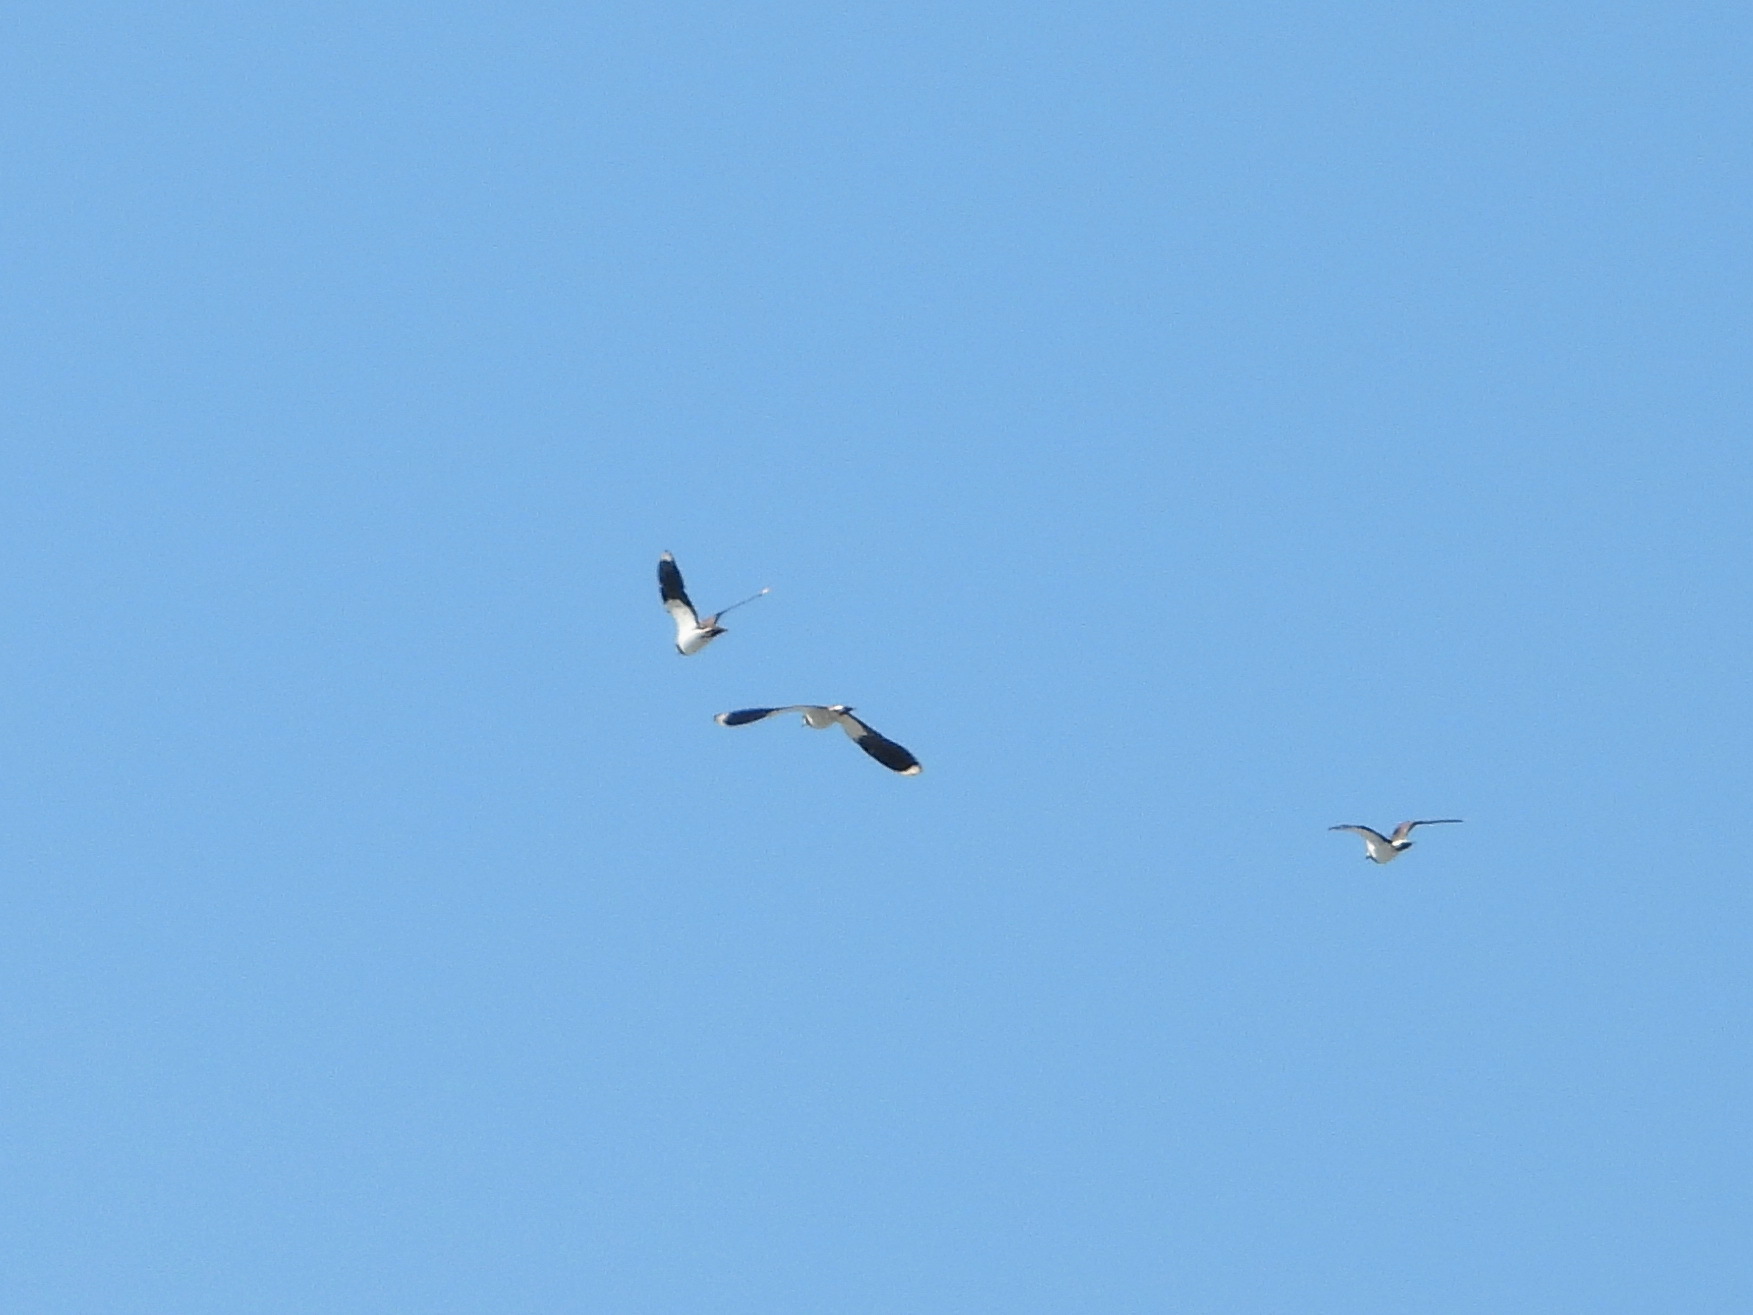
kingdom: Animalia
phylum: Chordata
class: Aves
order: Charadriiformes
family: Charadriidae
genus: Vanellus
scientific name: Vanellus vanellus
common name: Northern lapwing
